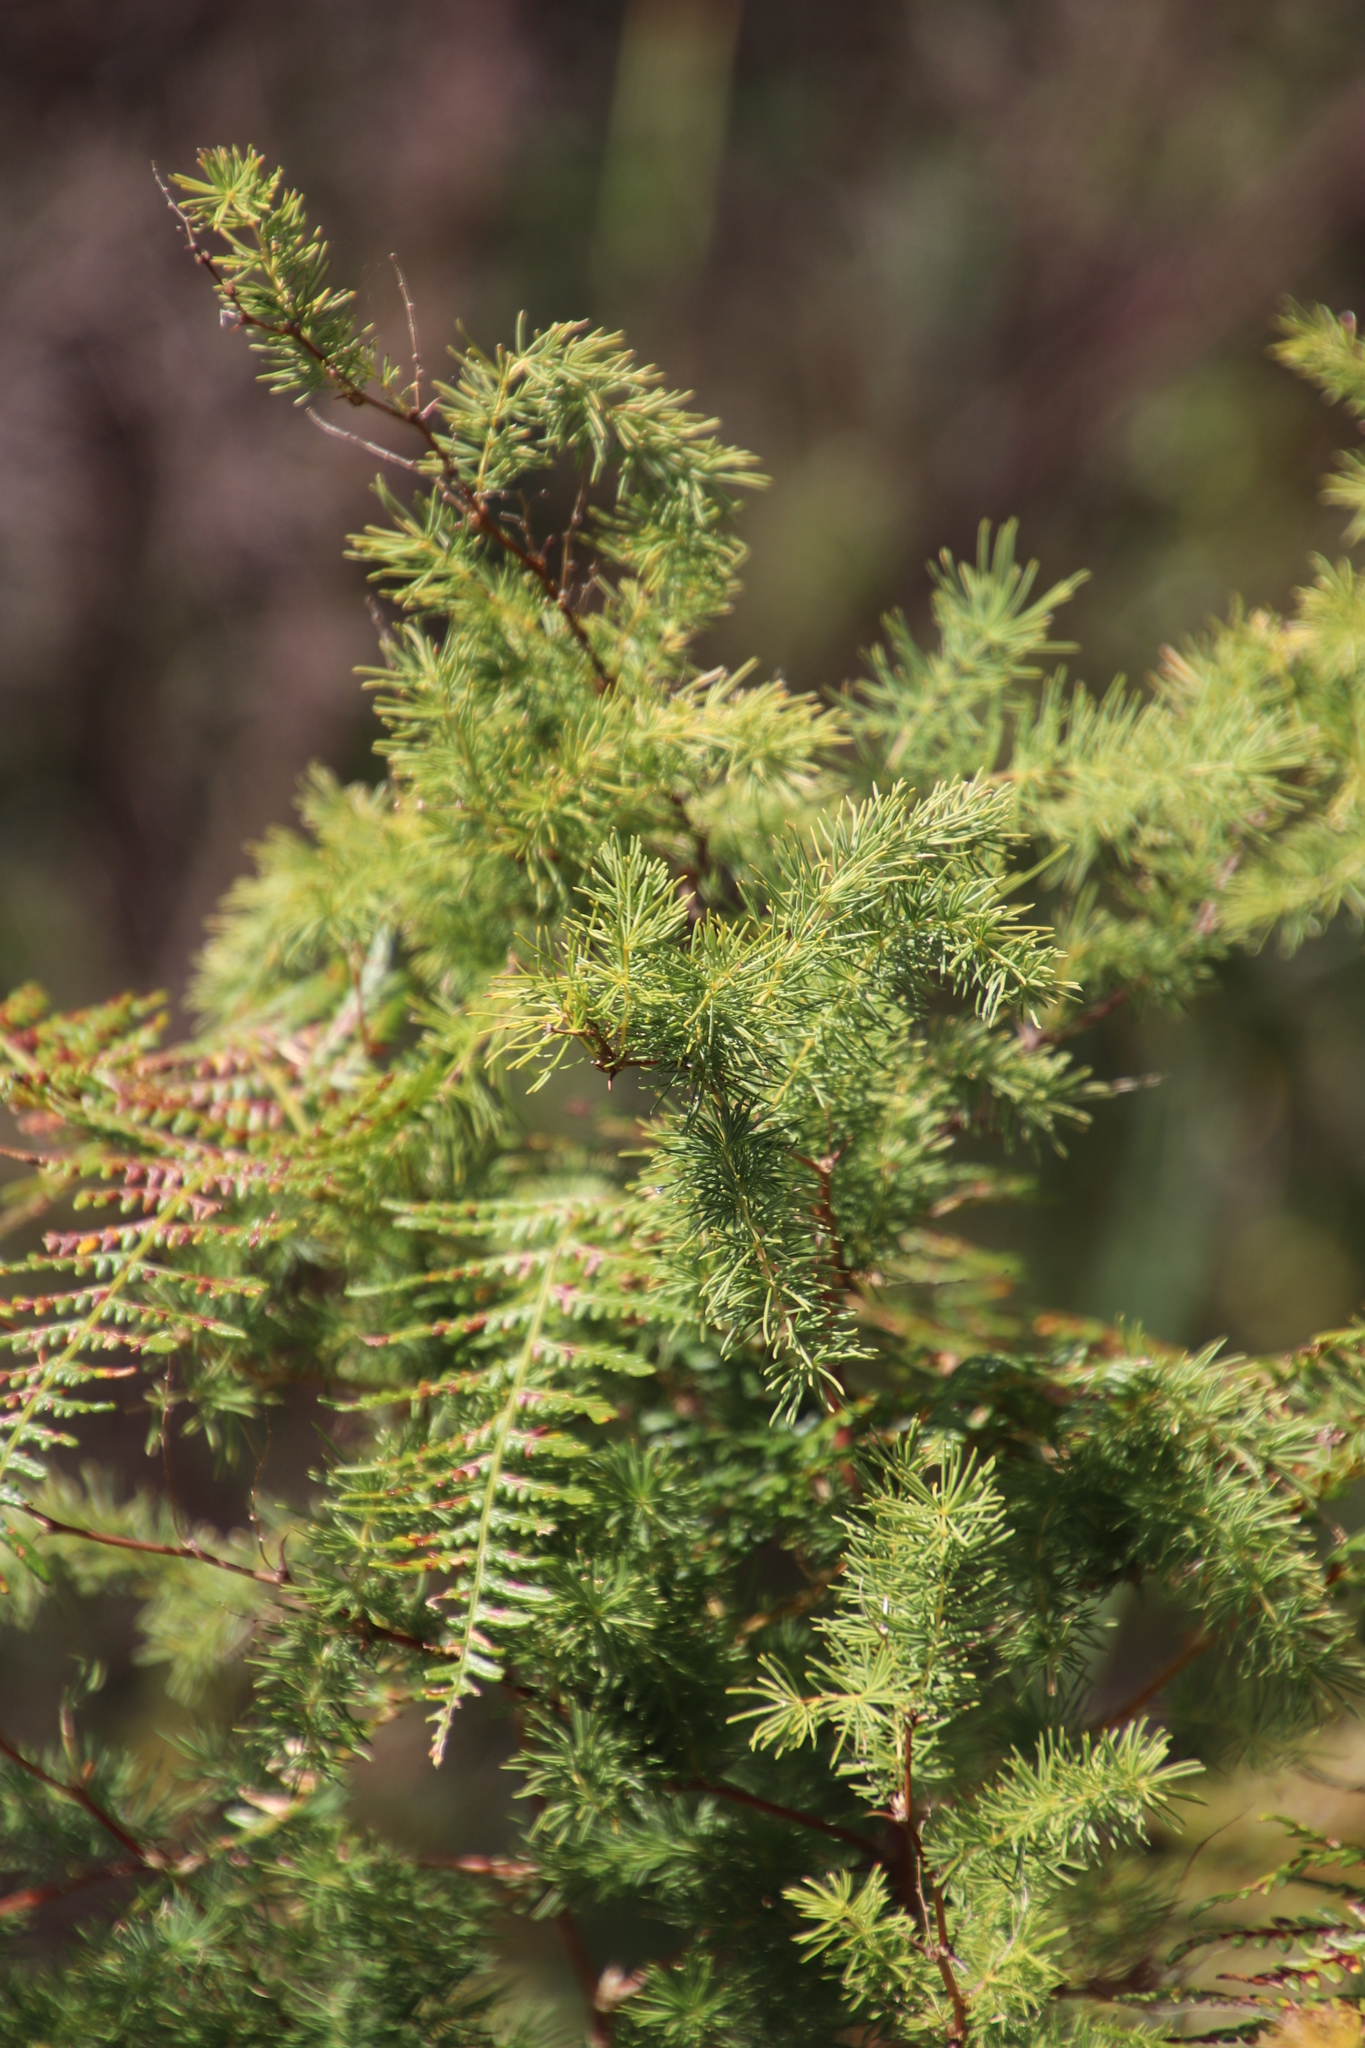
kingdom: Plantae
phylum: Tracheophyta
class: Liliopsida
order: Asparagales
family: Asparagaceae
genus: Asparagus
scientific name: Asparagus rubicundus
